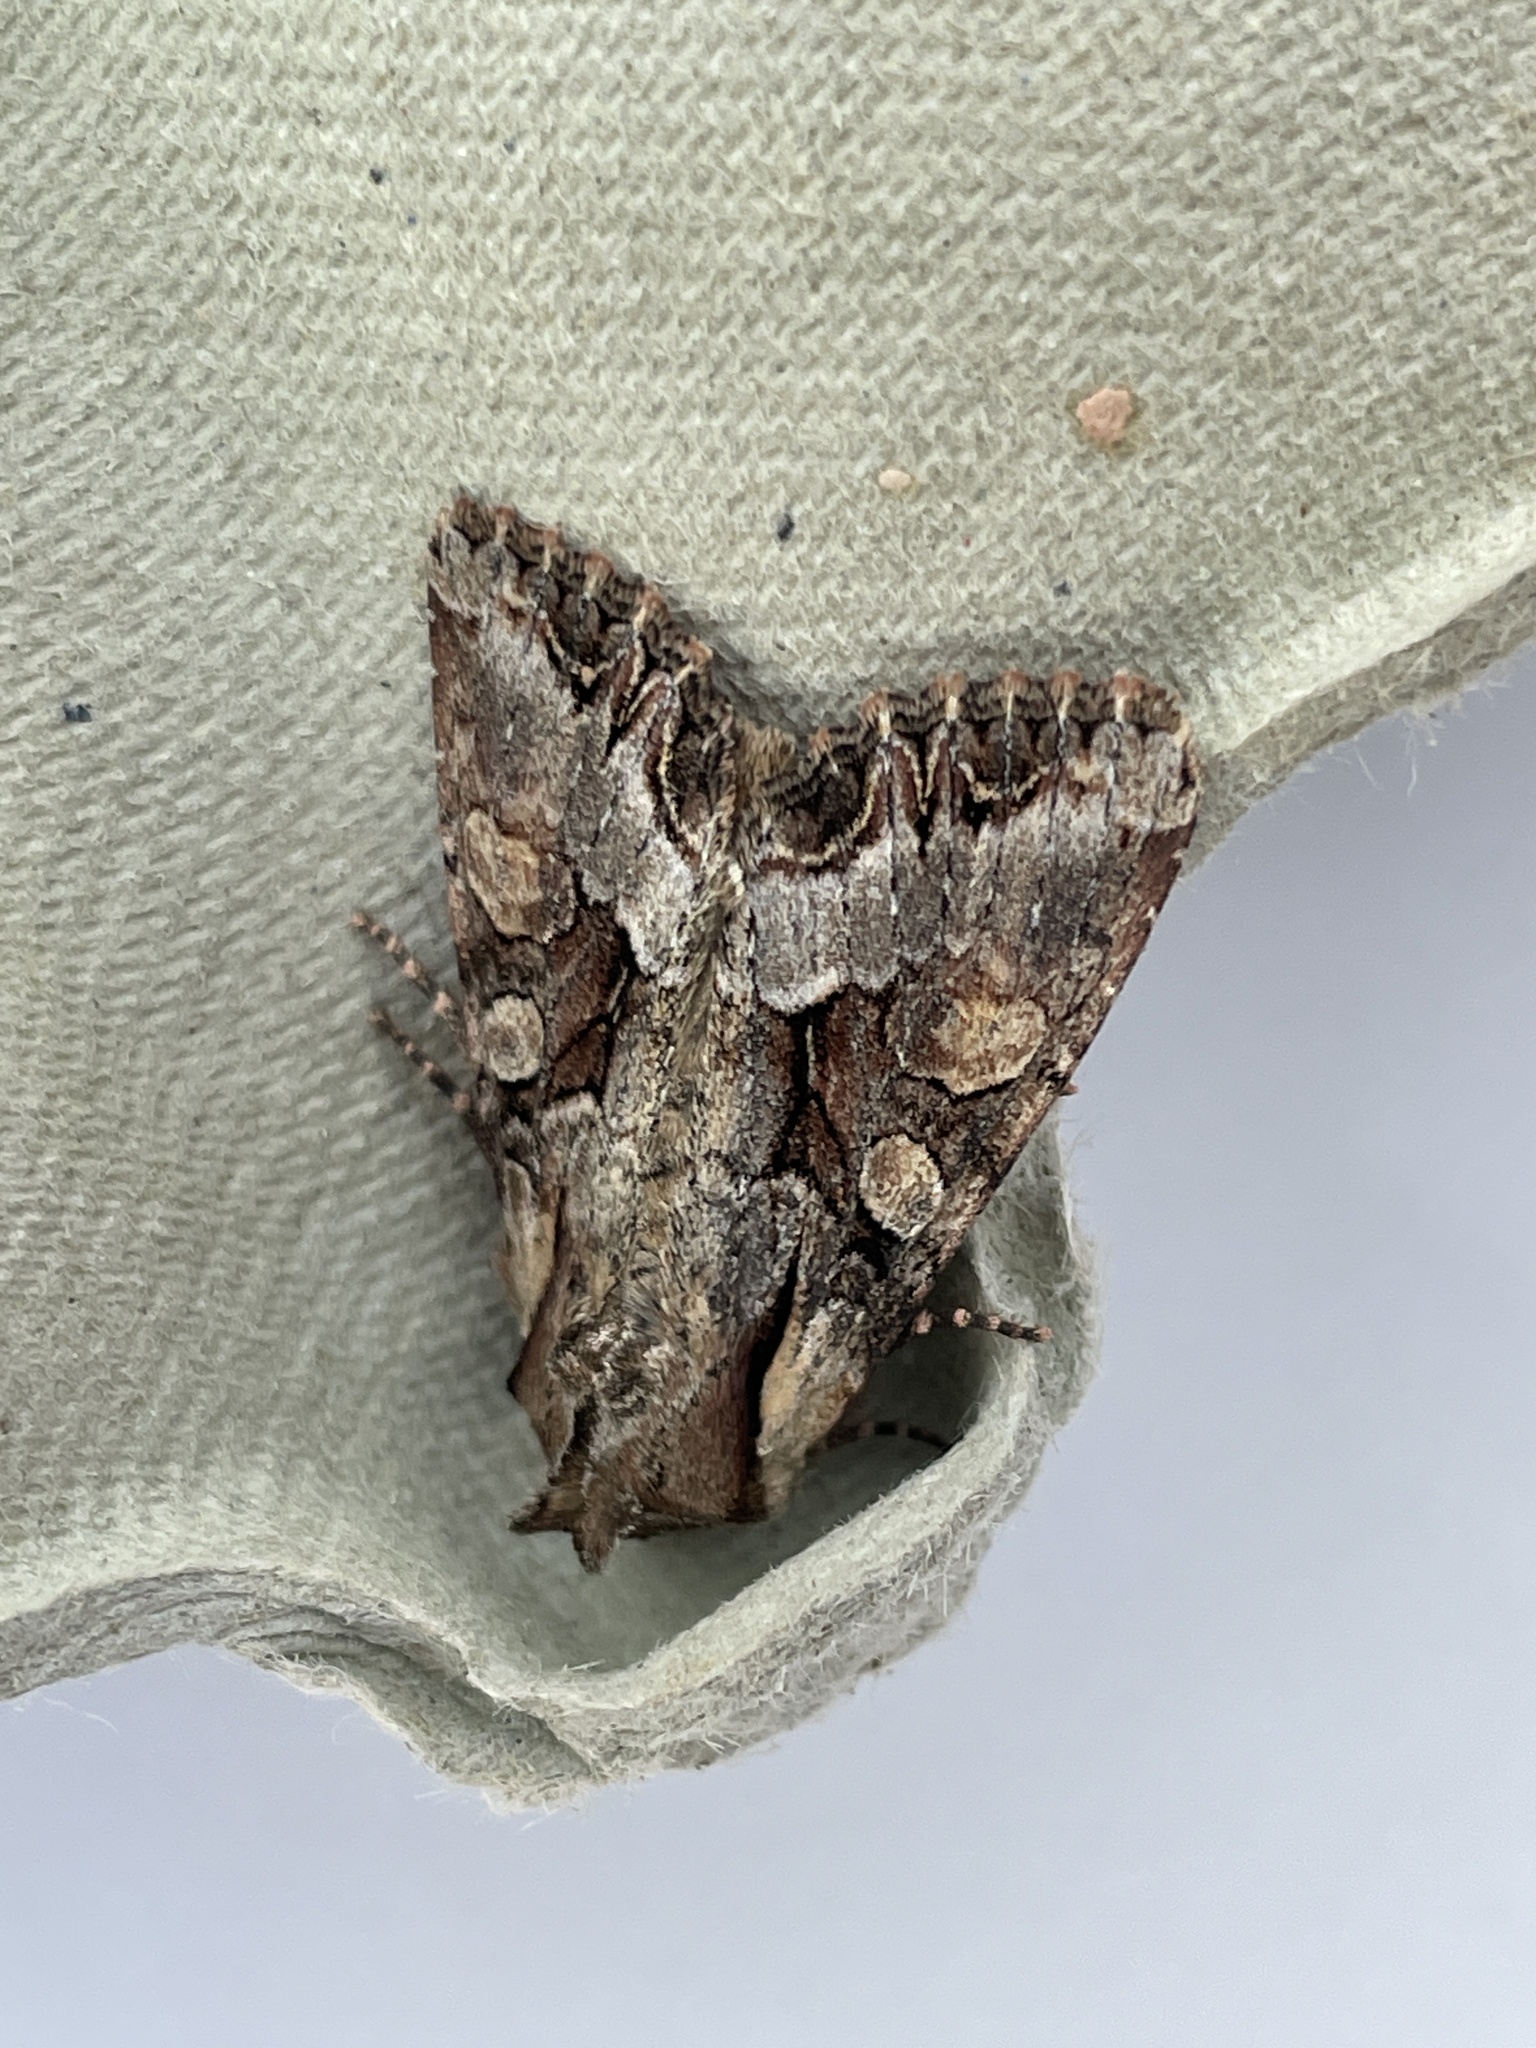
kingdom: Animalia
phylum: Arthropoda
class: Insecta
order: Lepidoptera
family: Noctuidae
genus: Lacanobia
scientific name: Lacanobia w-latinum
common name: Light brocade
